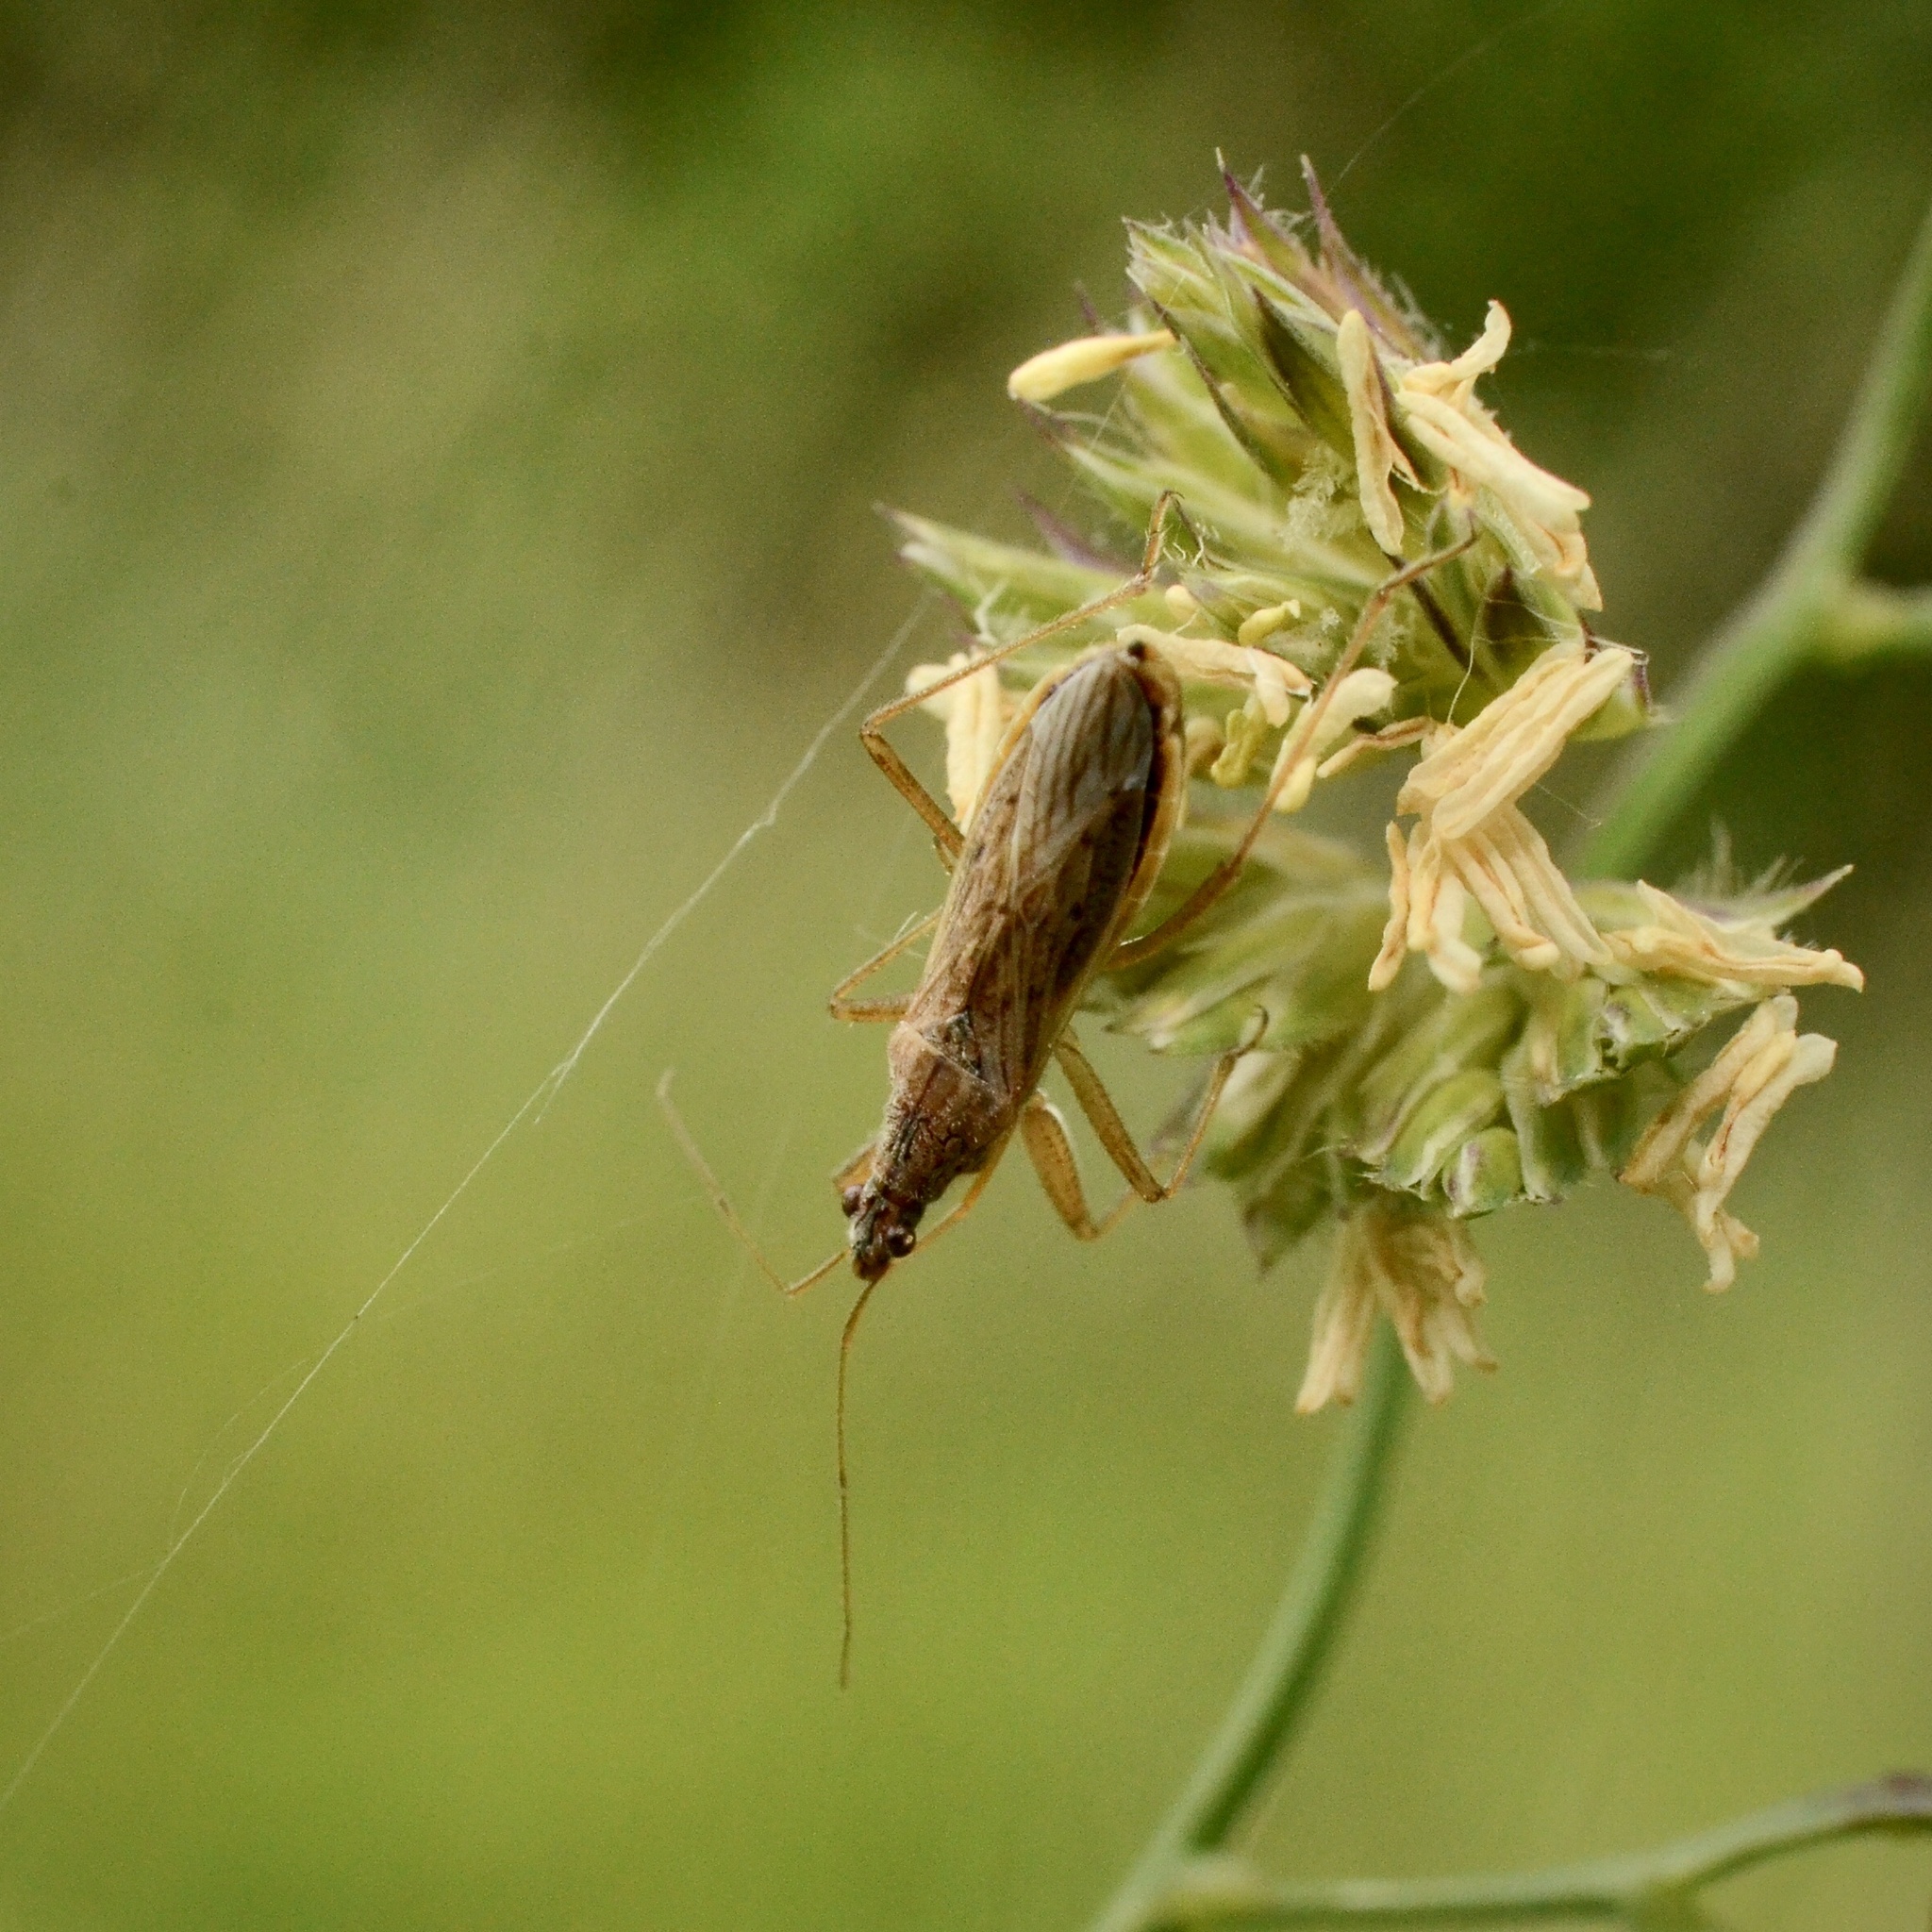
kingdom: Animalia
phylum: Arthropoda
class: Insecta
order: Hemiptera
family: Nabidae
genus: Nabis
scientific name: Nabis
